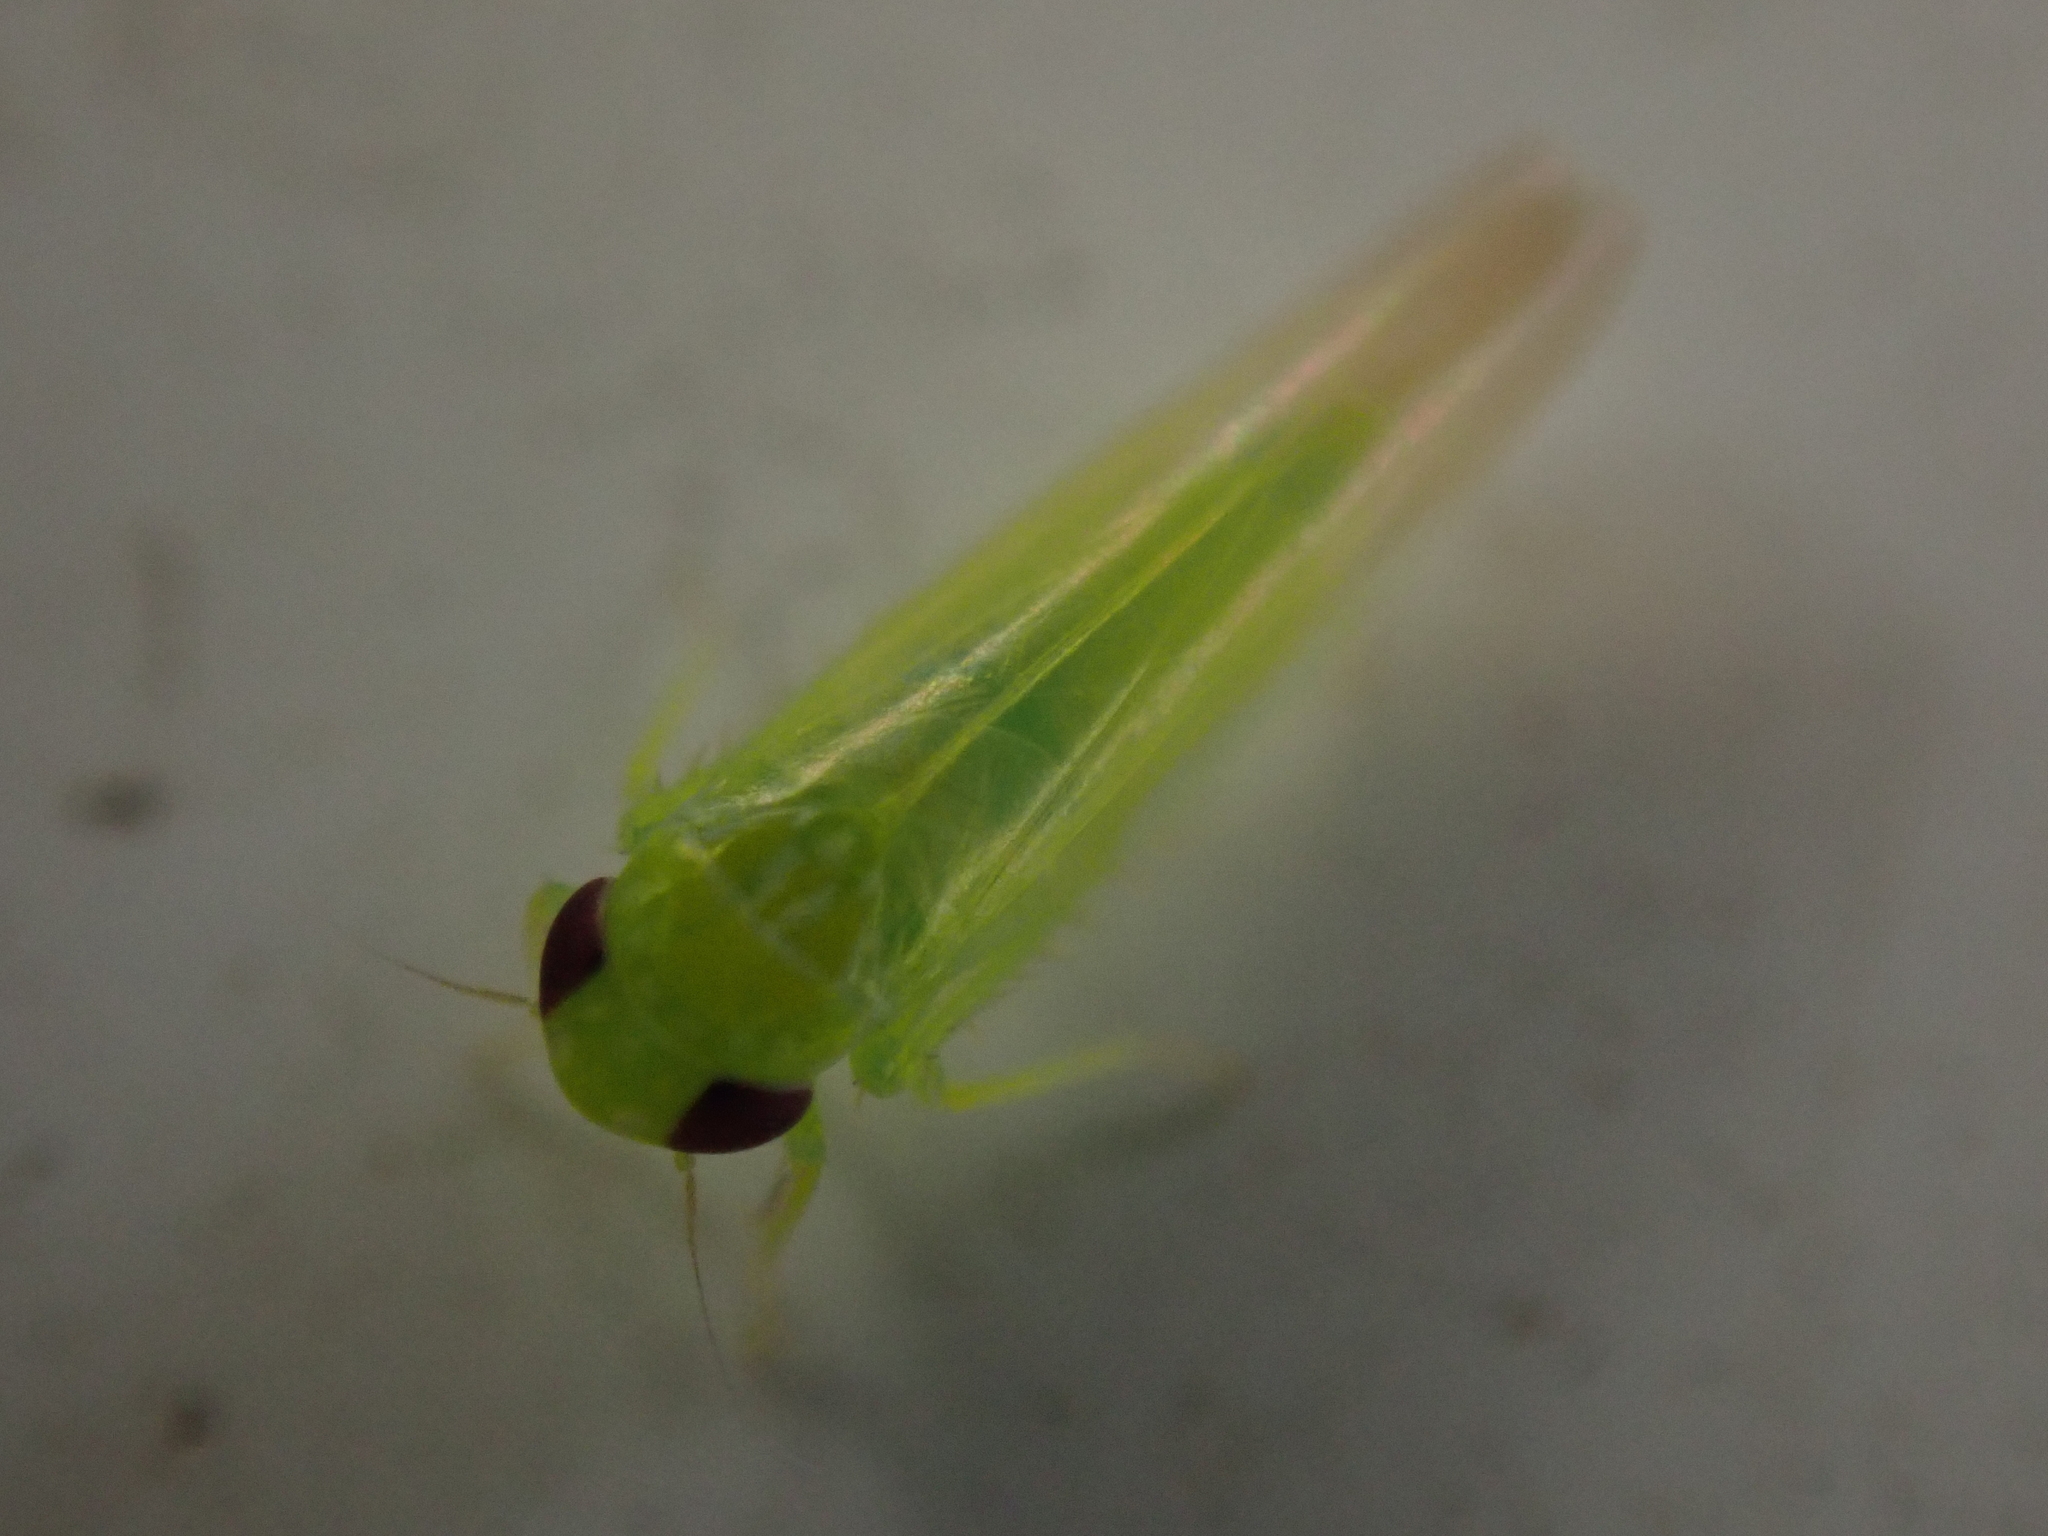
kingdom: Animalia
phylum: Arthropoda
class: Insecta
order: Hemiptera
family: Cicadellidae
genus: Empoasca
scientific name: Empoasca fabae
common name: Potato leafhopper
